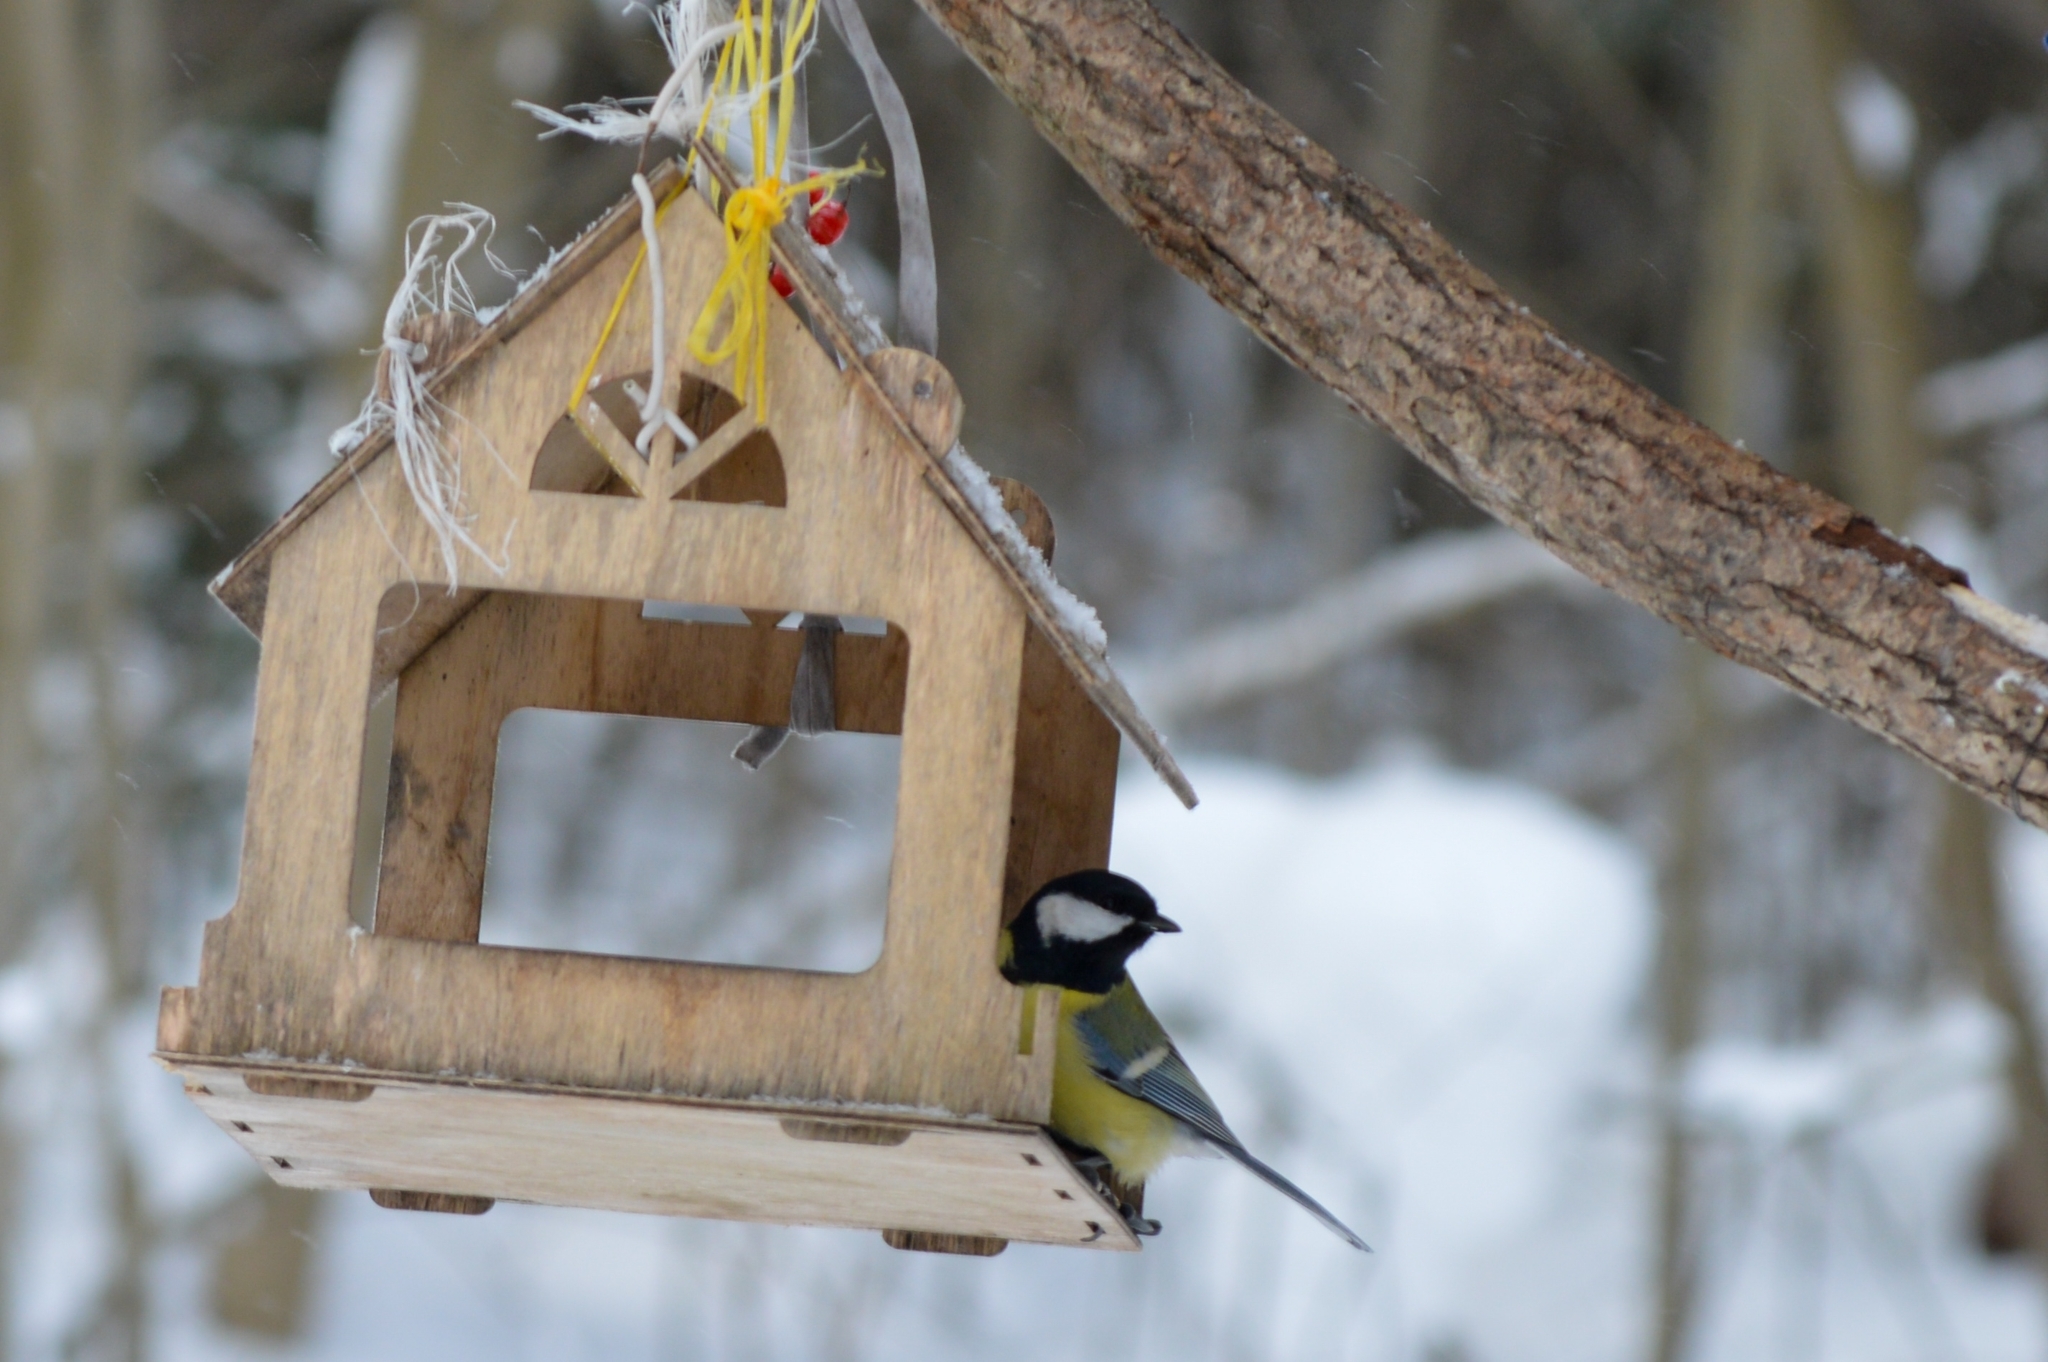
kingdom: Animalia
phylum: Chordata
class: Aves
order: Passeriformes
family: Paridae
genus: Parus
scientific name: Parus major
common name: Great tit
